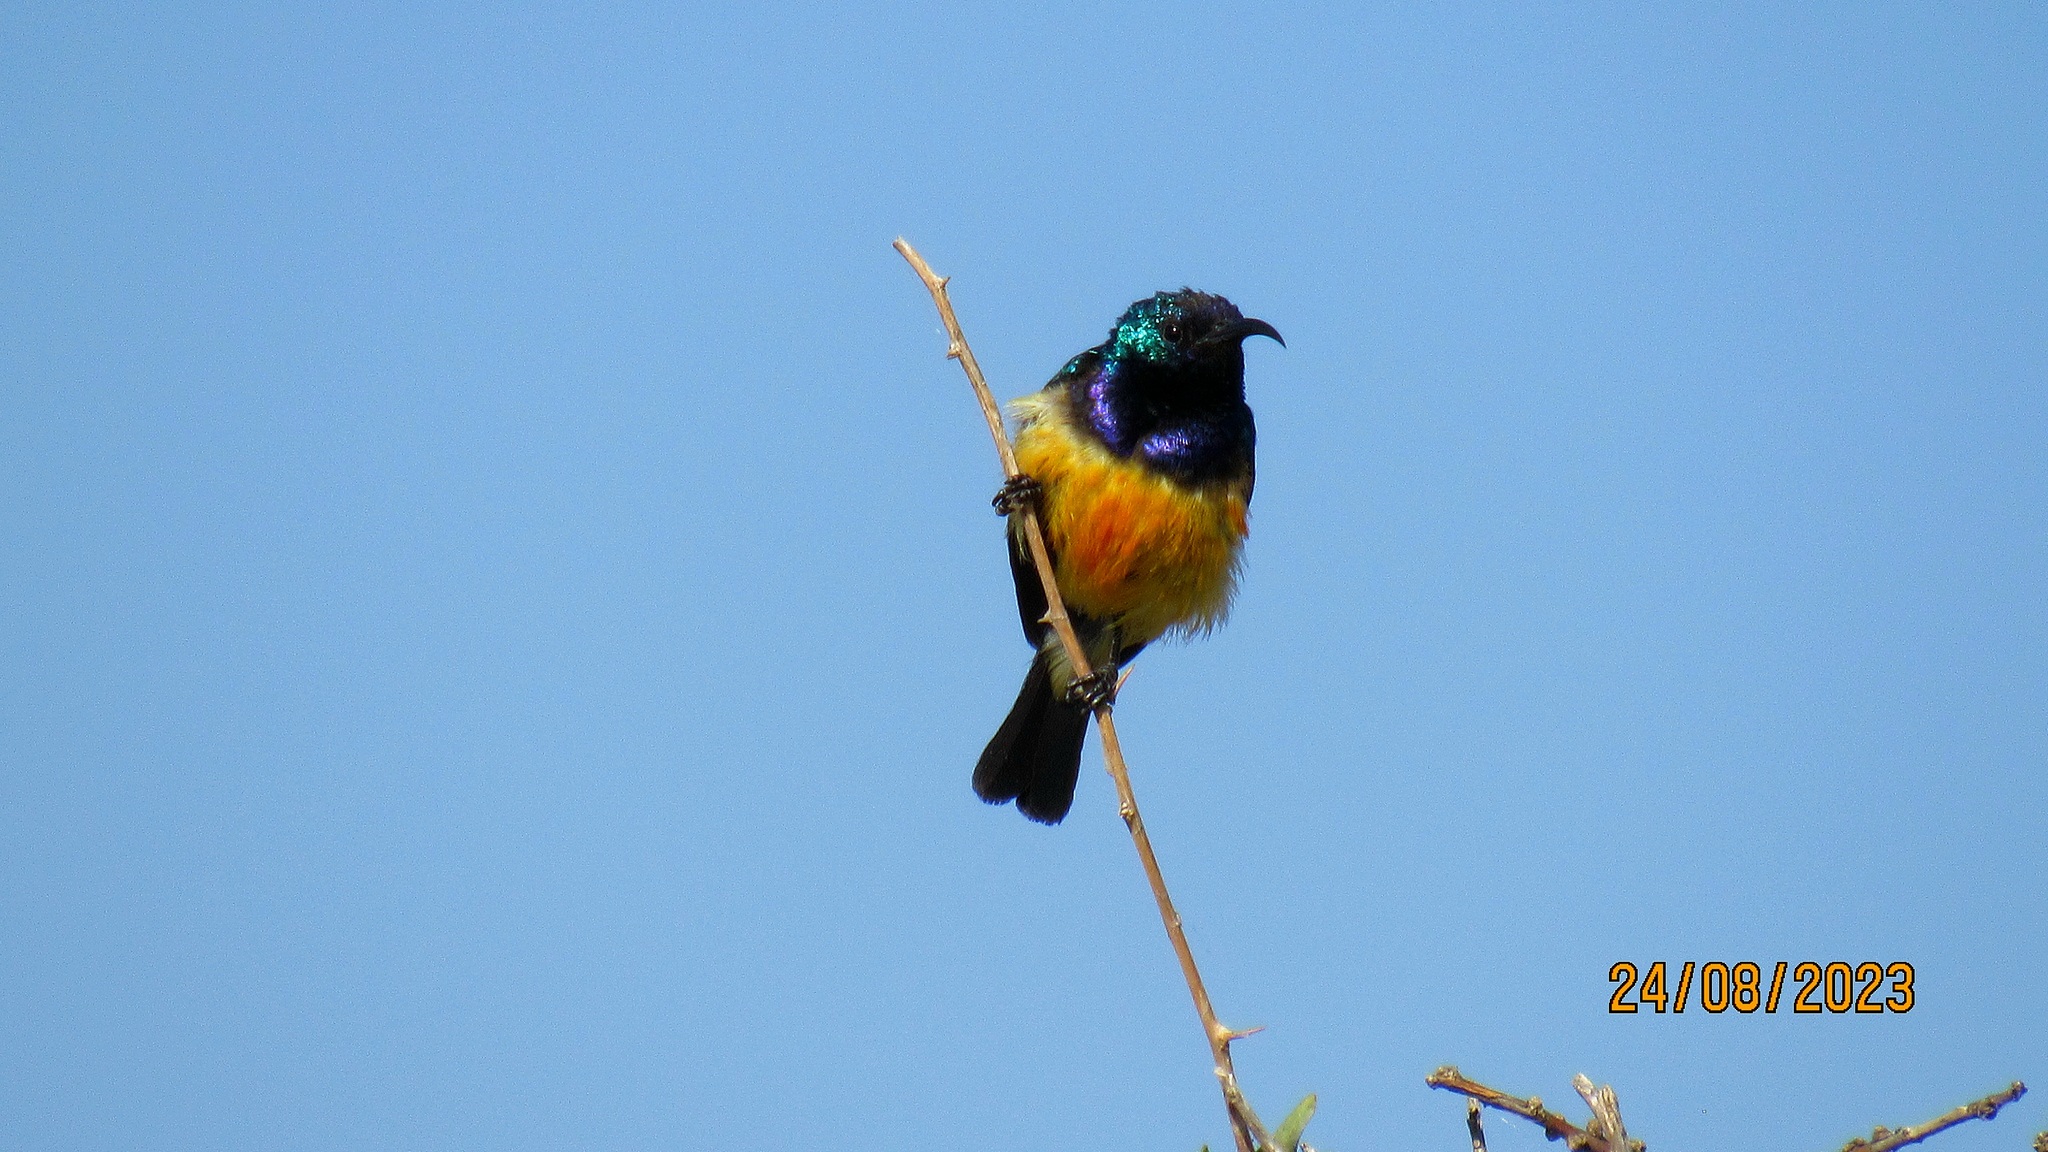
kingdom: Animalia
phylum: Chordata
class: Aves
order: Passeriformes
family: Nectariniidae
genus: Cinnyris
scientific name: Cinnyris venustus
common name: Variable sunbird
